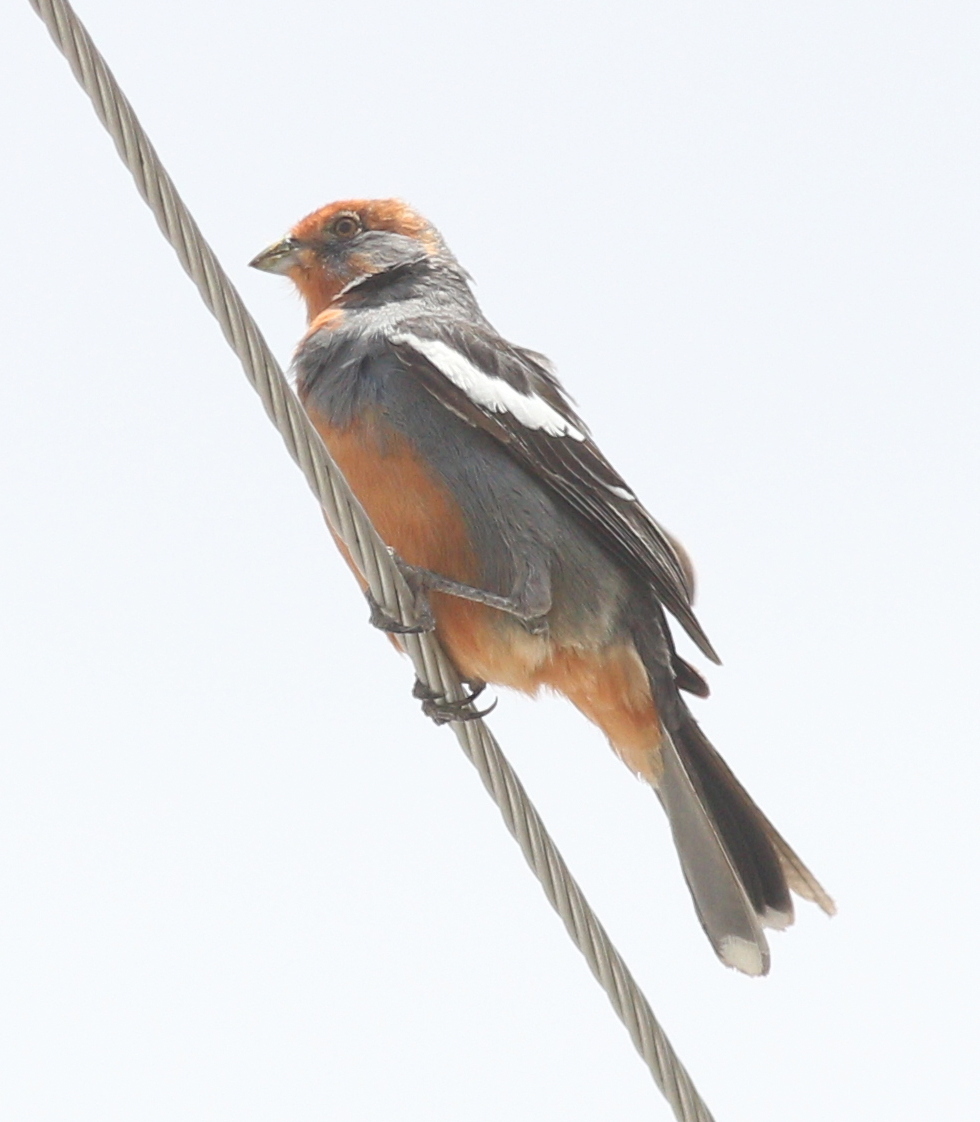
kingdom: Animalia
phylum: Chordata
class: Aves
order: Passeriformes
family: Cotingidae
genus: Phytotoma
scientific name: Phytotoma rutila
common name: White-tipped plantcutter
